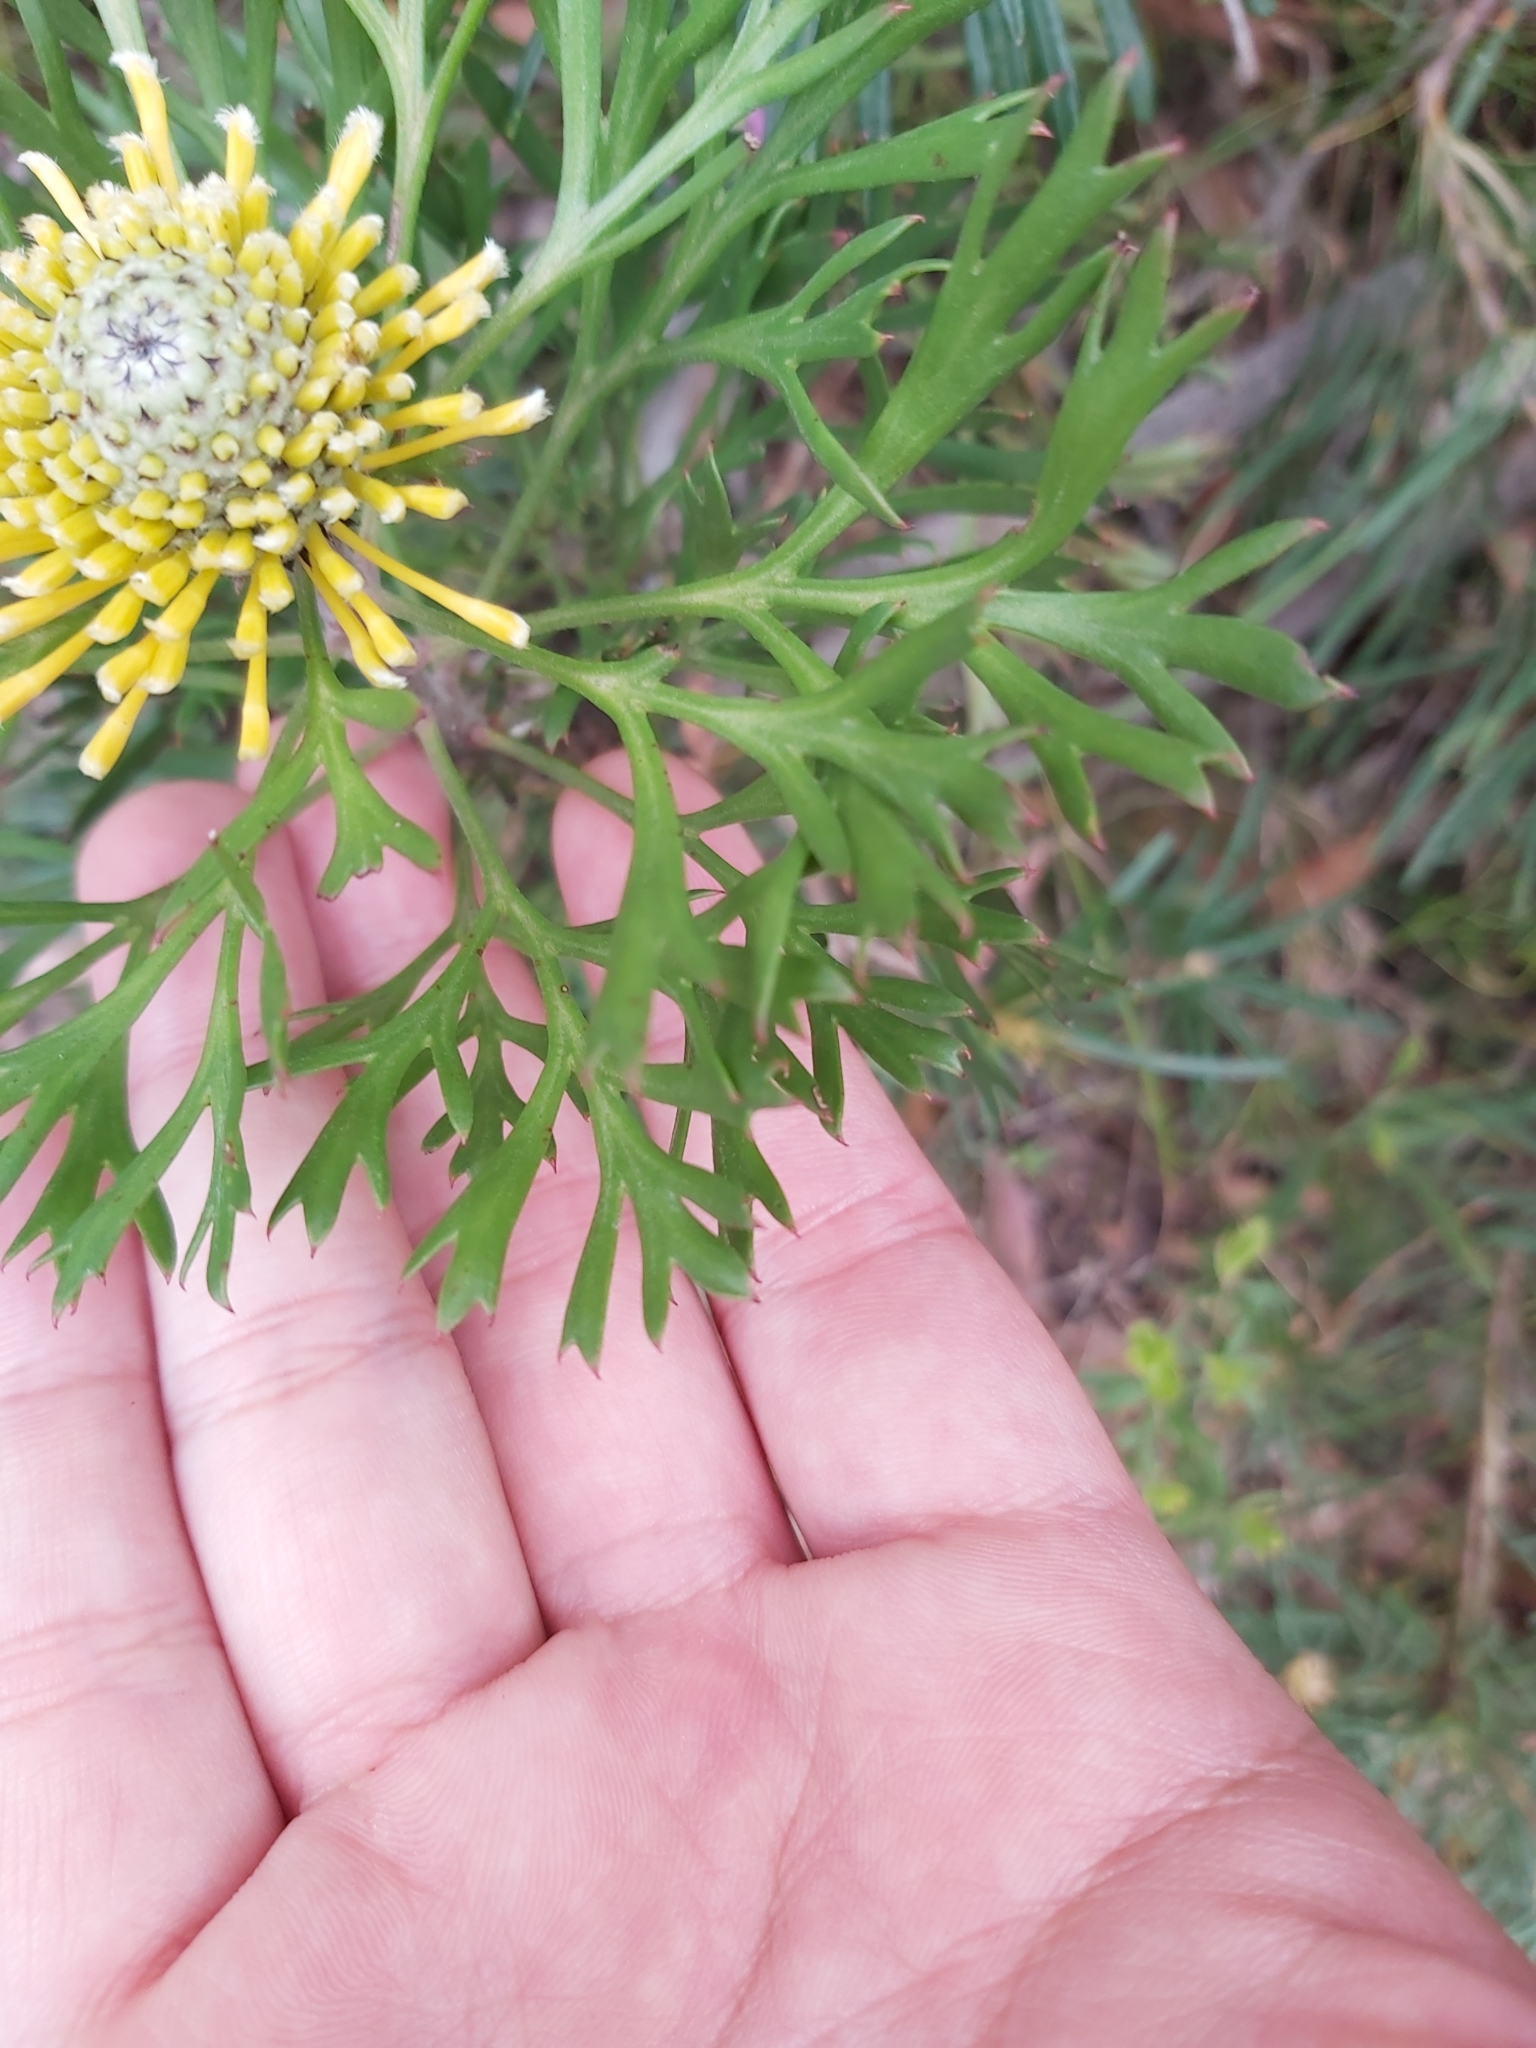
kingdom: Plantae
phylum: Tracheophyta
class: Magnoliopsida
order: Proteales
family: Proteaceae
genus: Isopogon
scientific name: Isopogon anemonifolius
